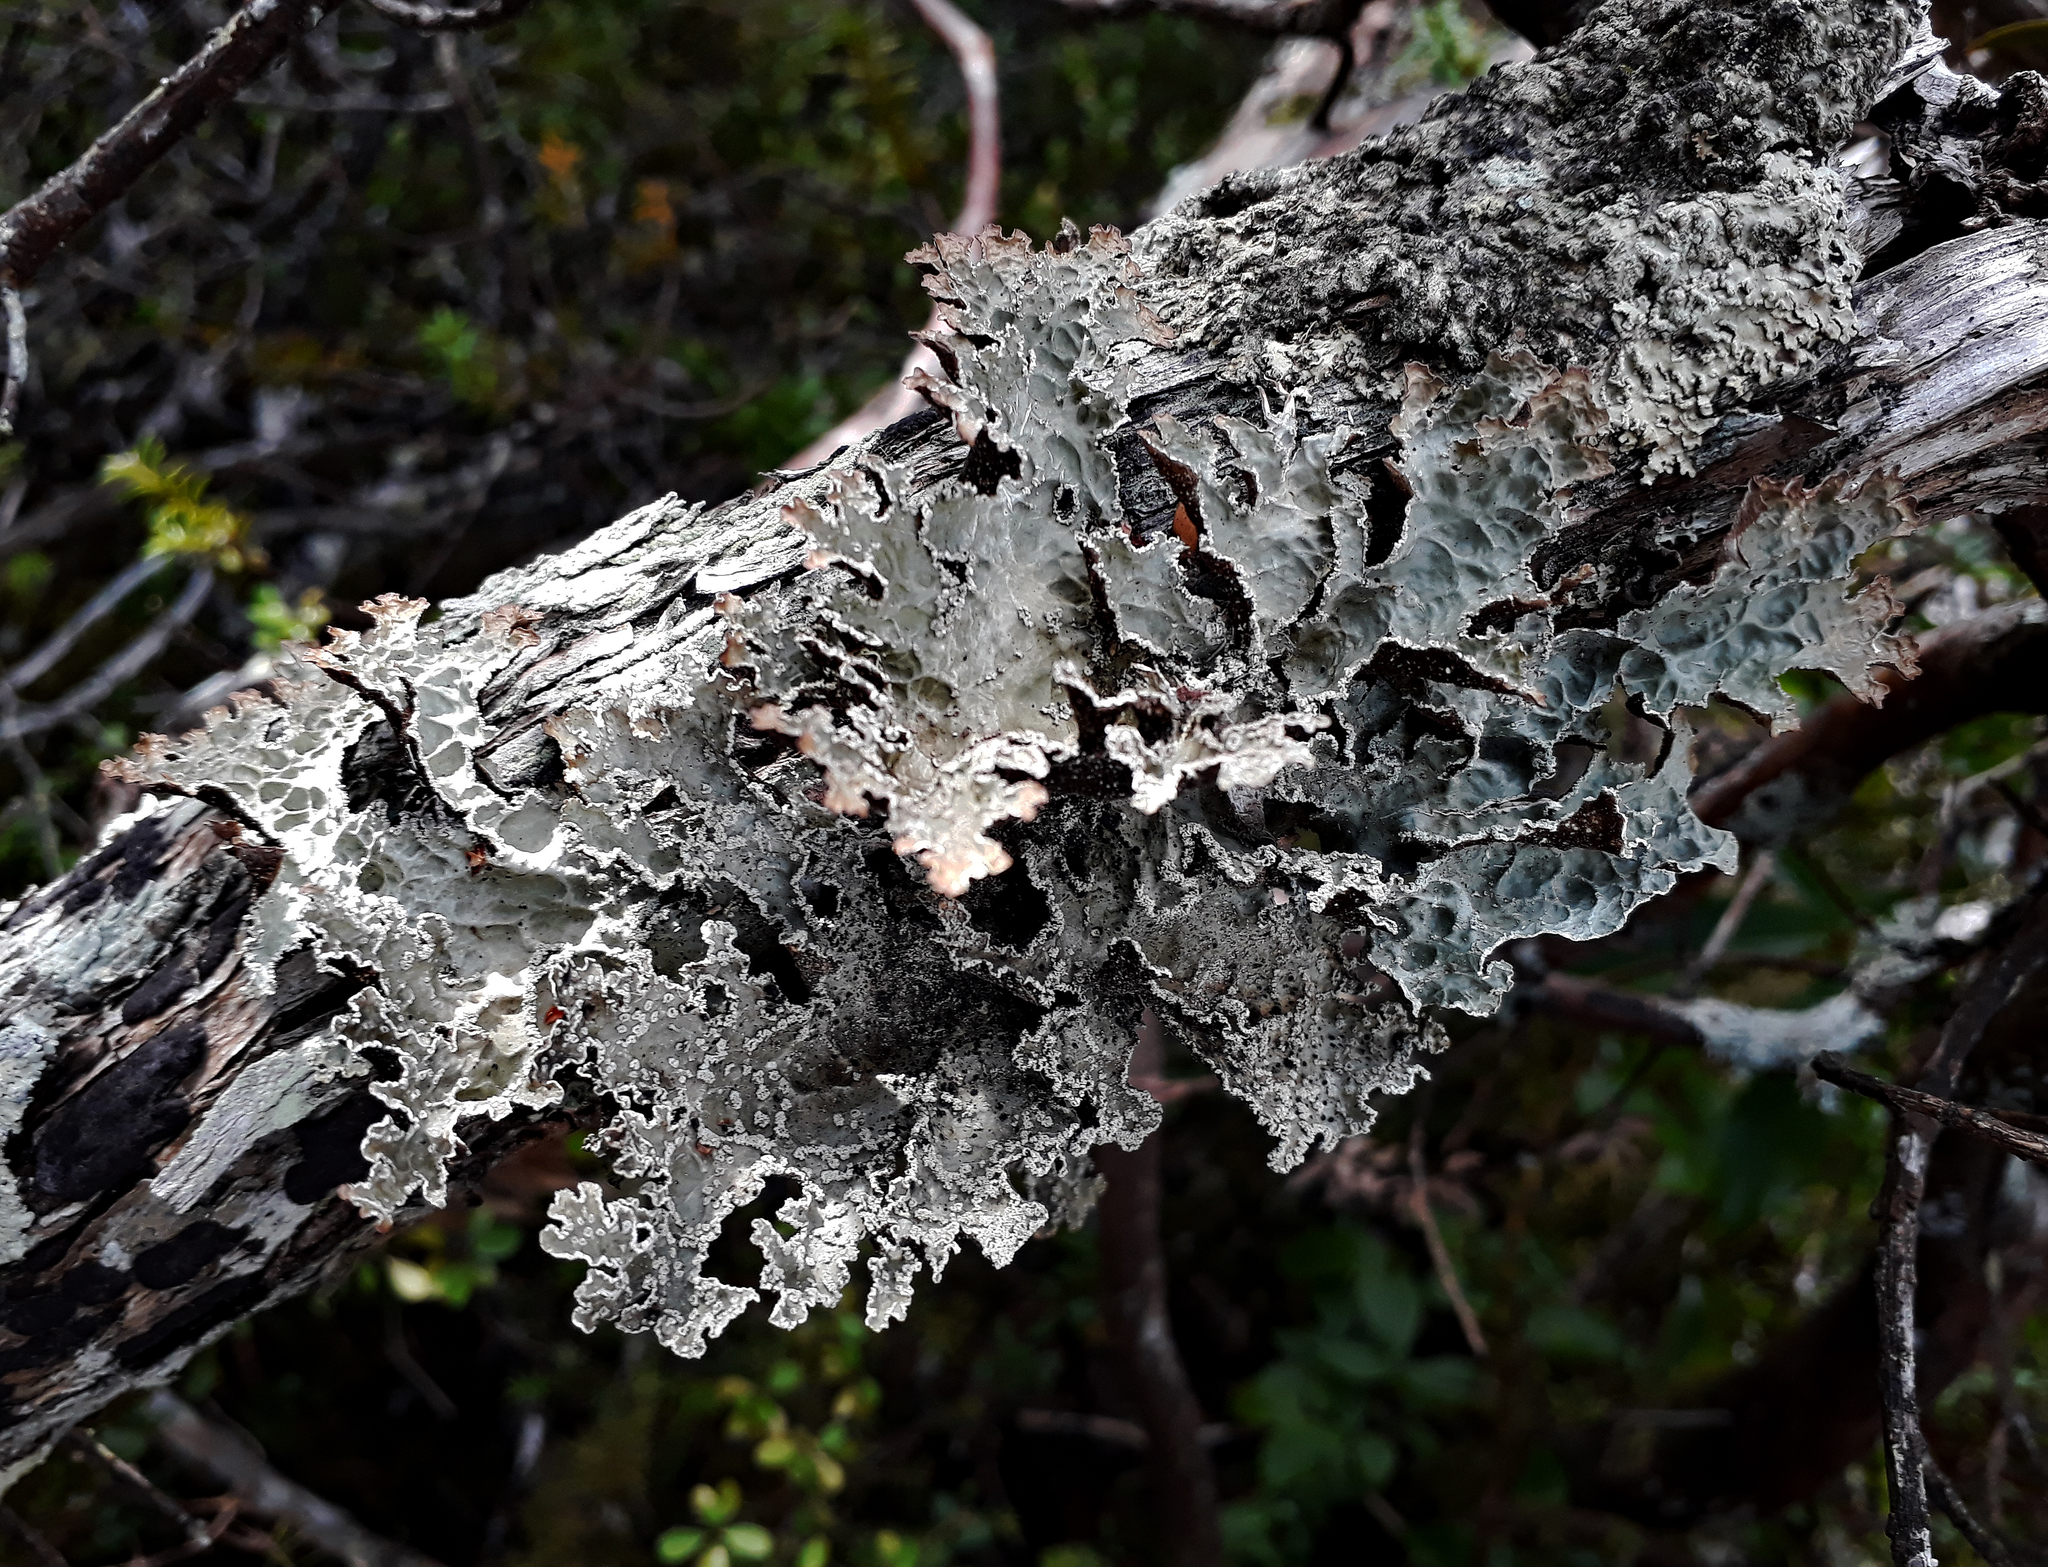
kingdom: Fungi
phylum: Ascomycota
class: Lecanoromycetes
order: Peltigerales
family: Lobariaceae
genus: Pseudocyphellaria
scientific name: Pseudocyphellaria granulata
